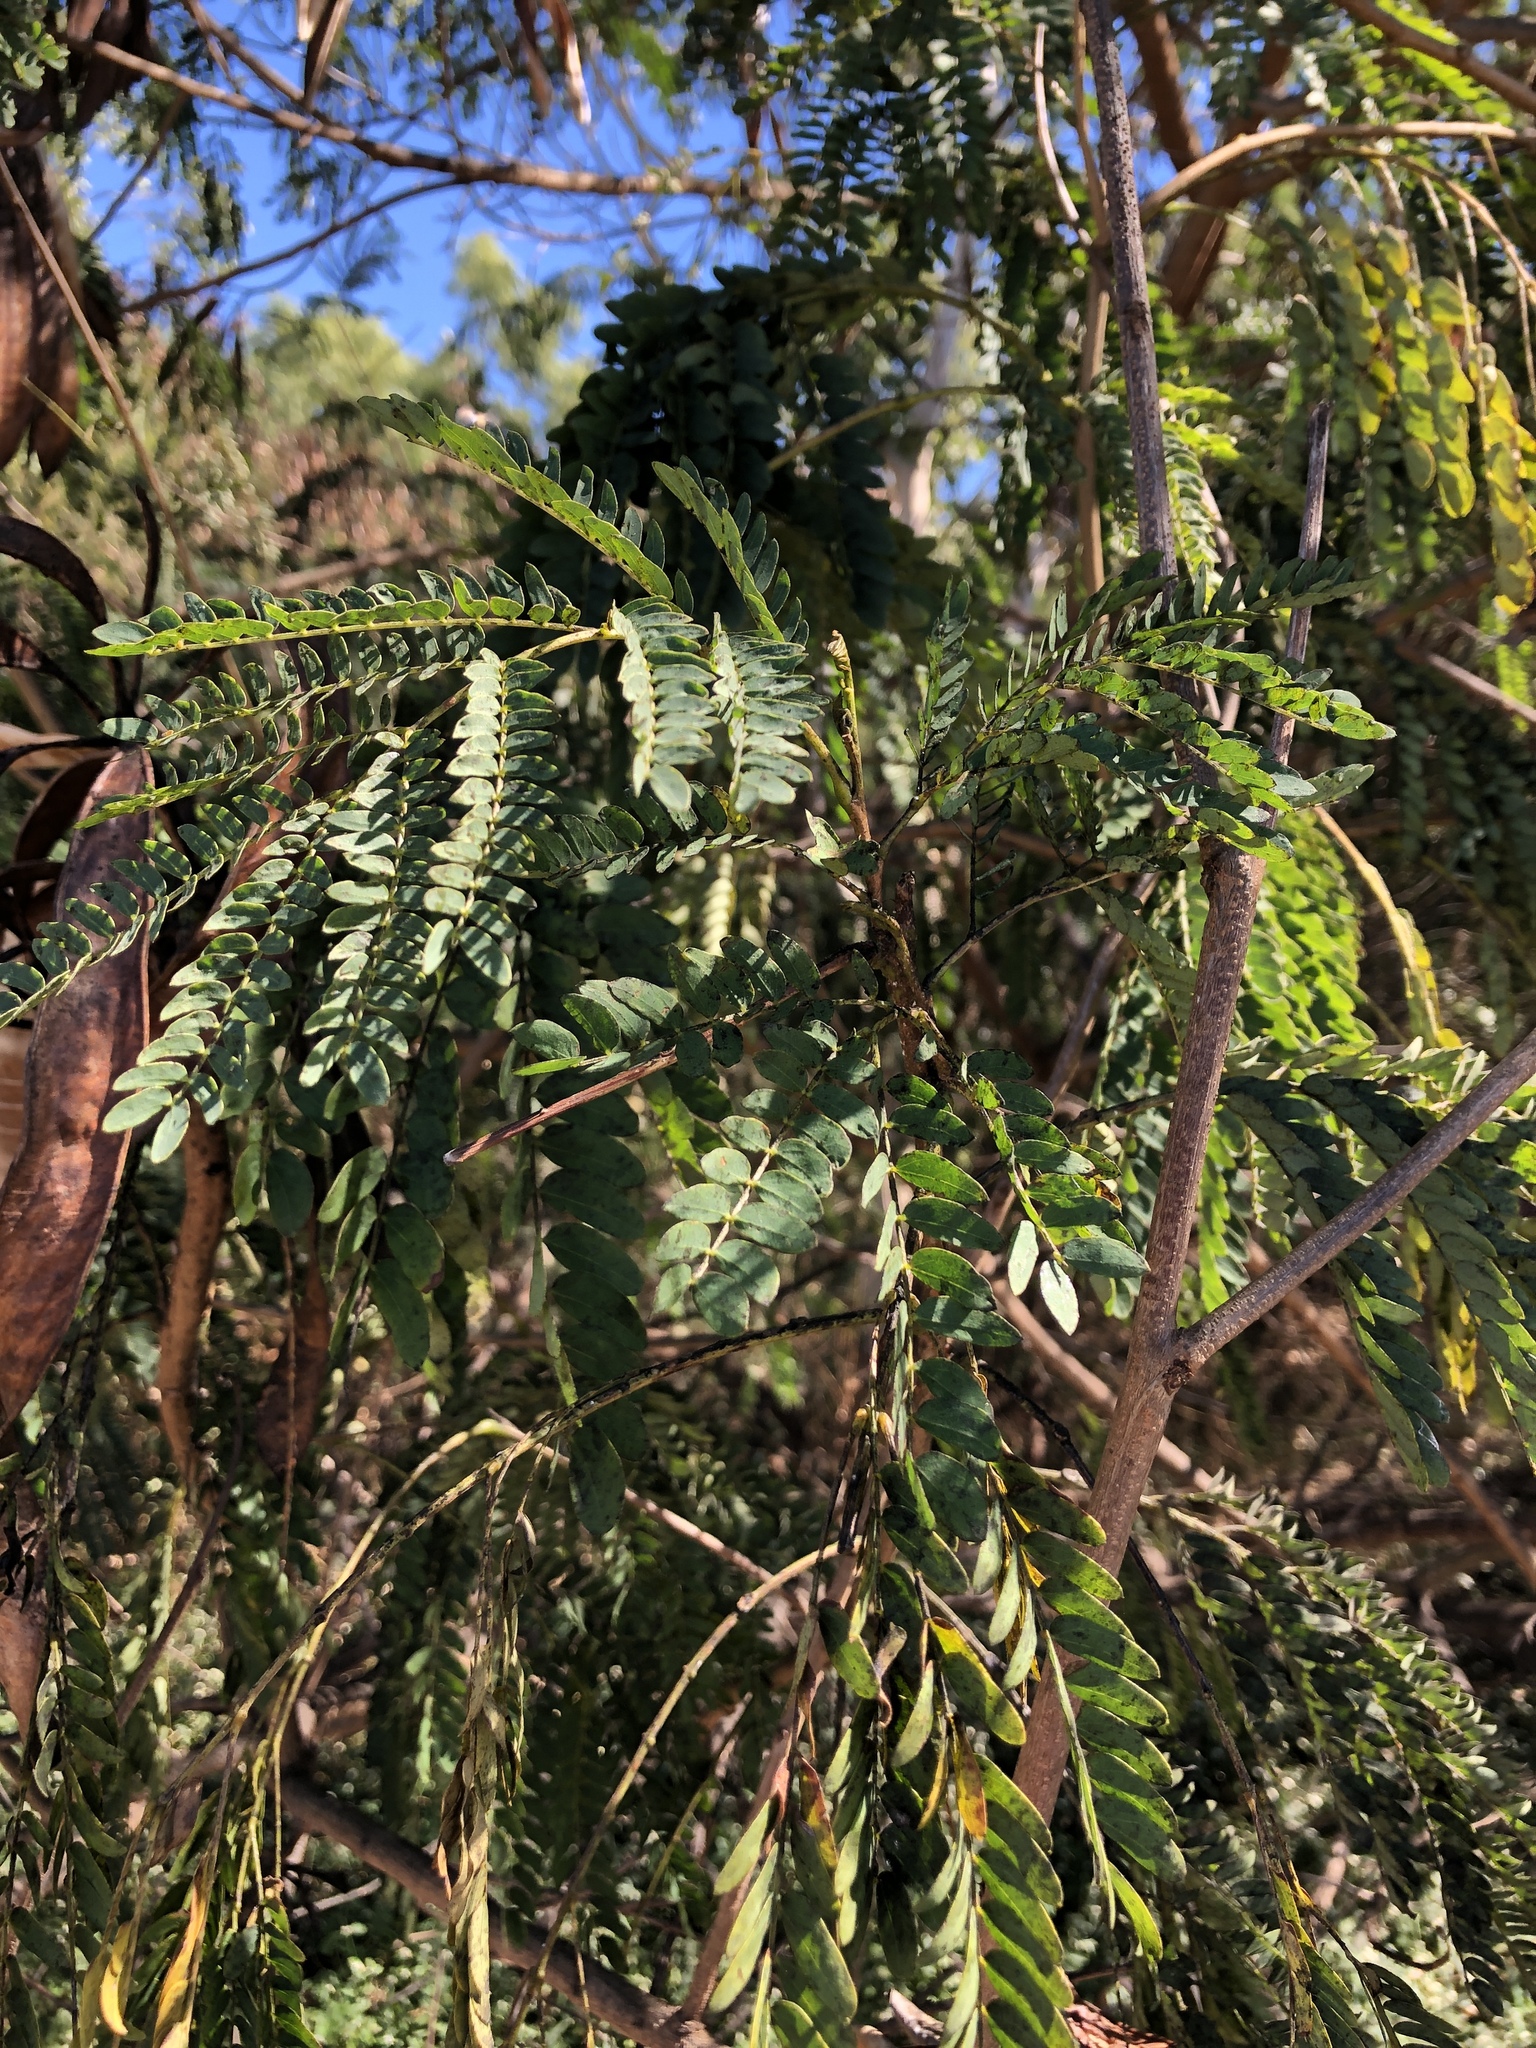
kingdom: Plantae
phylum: Tracheophyta
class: Magnoliopsida
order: Fabales
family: Fabaceae
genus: Leucaena
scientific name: Leucaena leucocephala
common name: White leadtree
